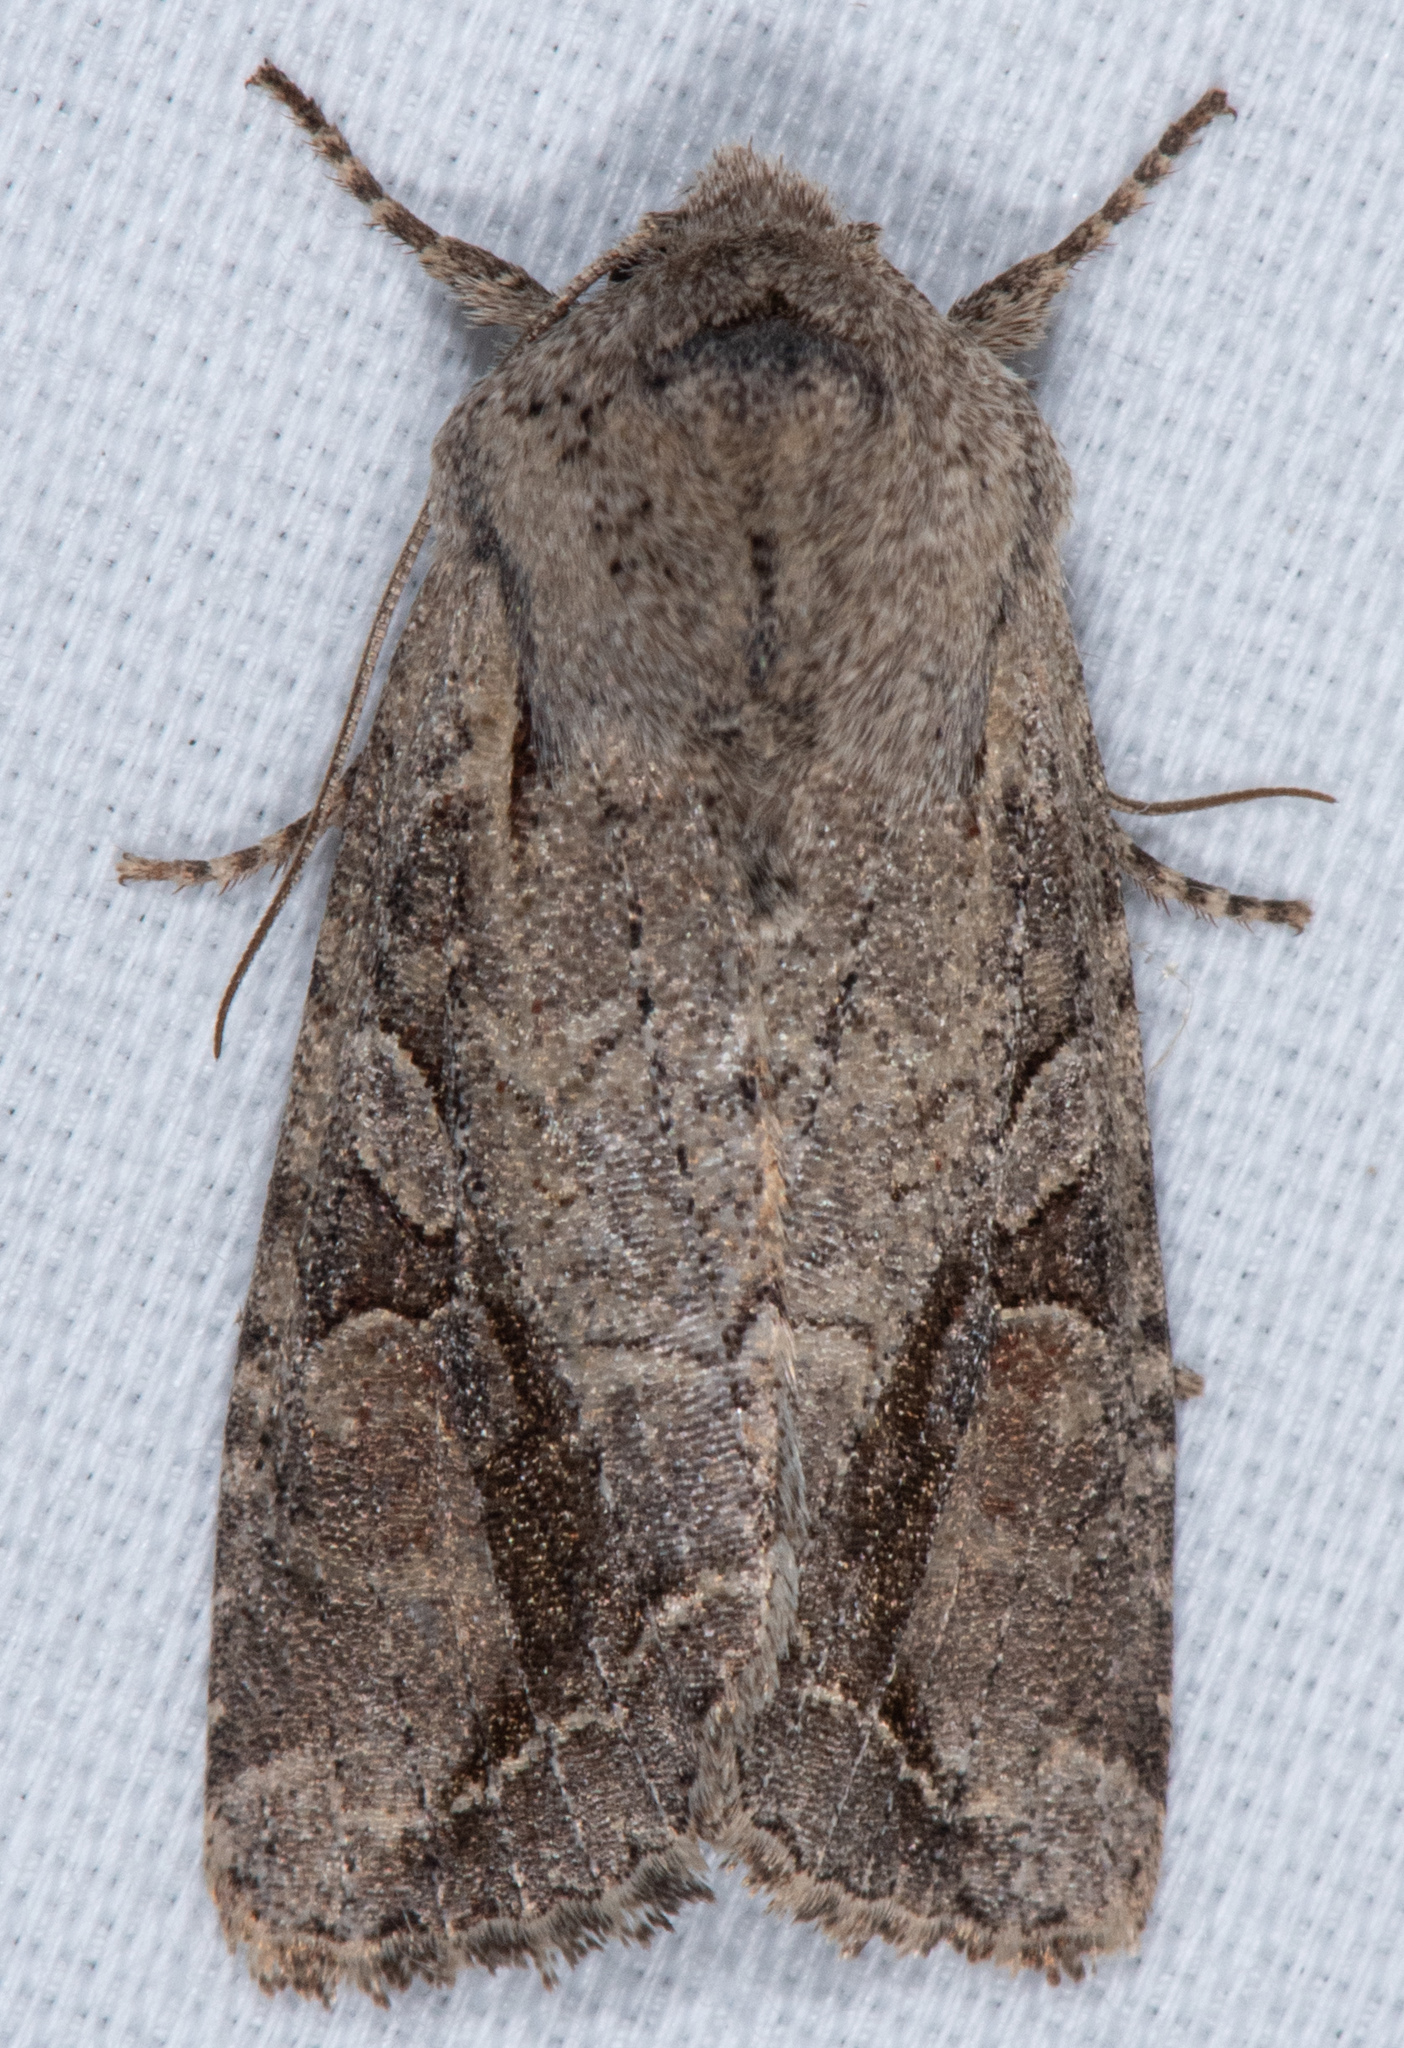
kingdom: Animalia
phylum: Arthropoda
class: Insecta
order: Lepidoptera
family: Noctuidae
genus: Egira
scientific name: Egira rubrica
